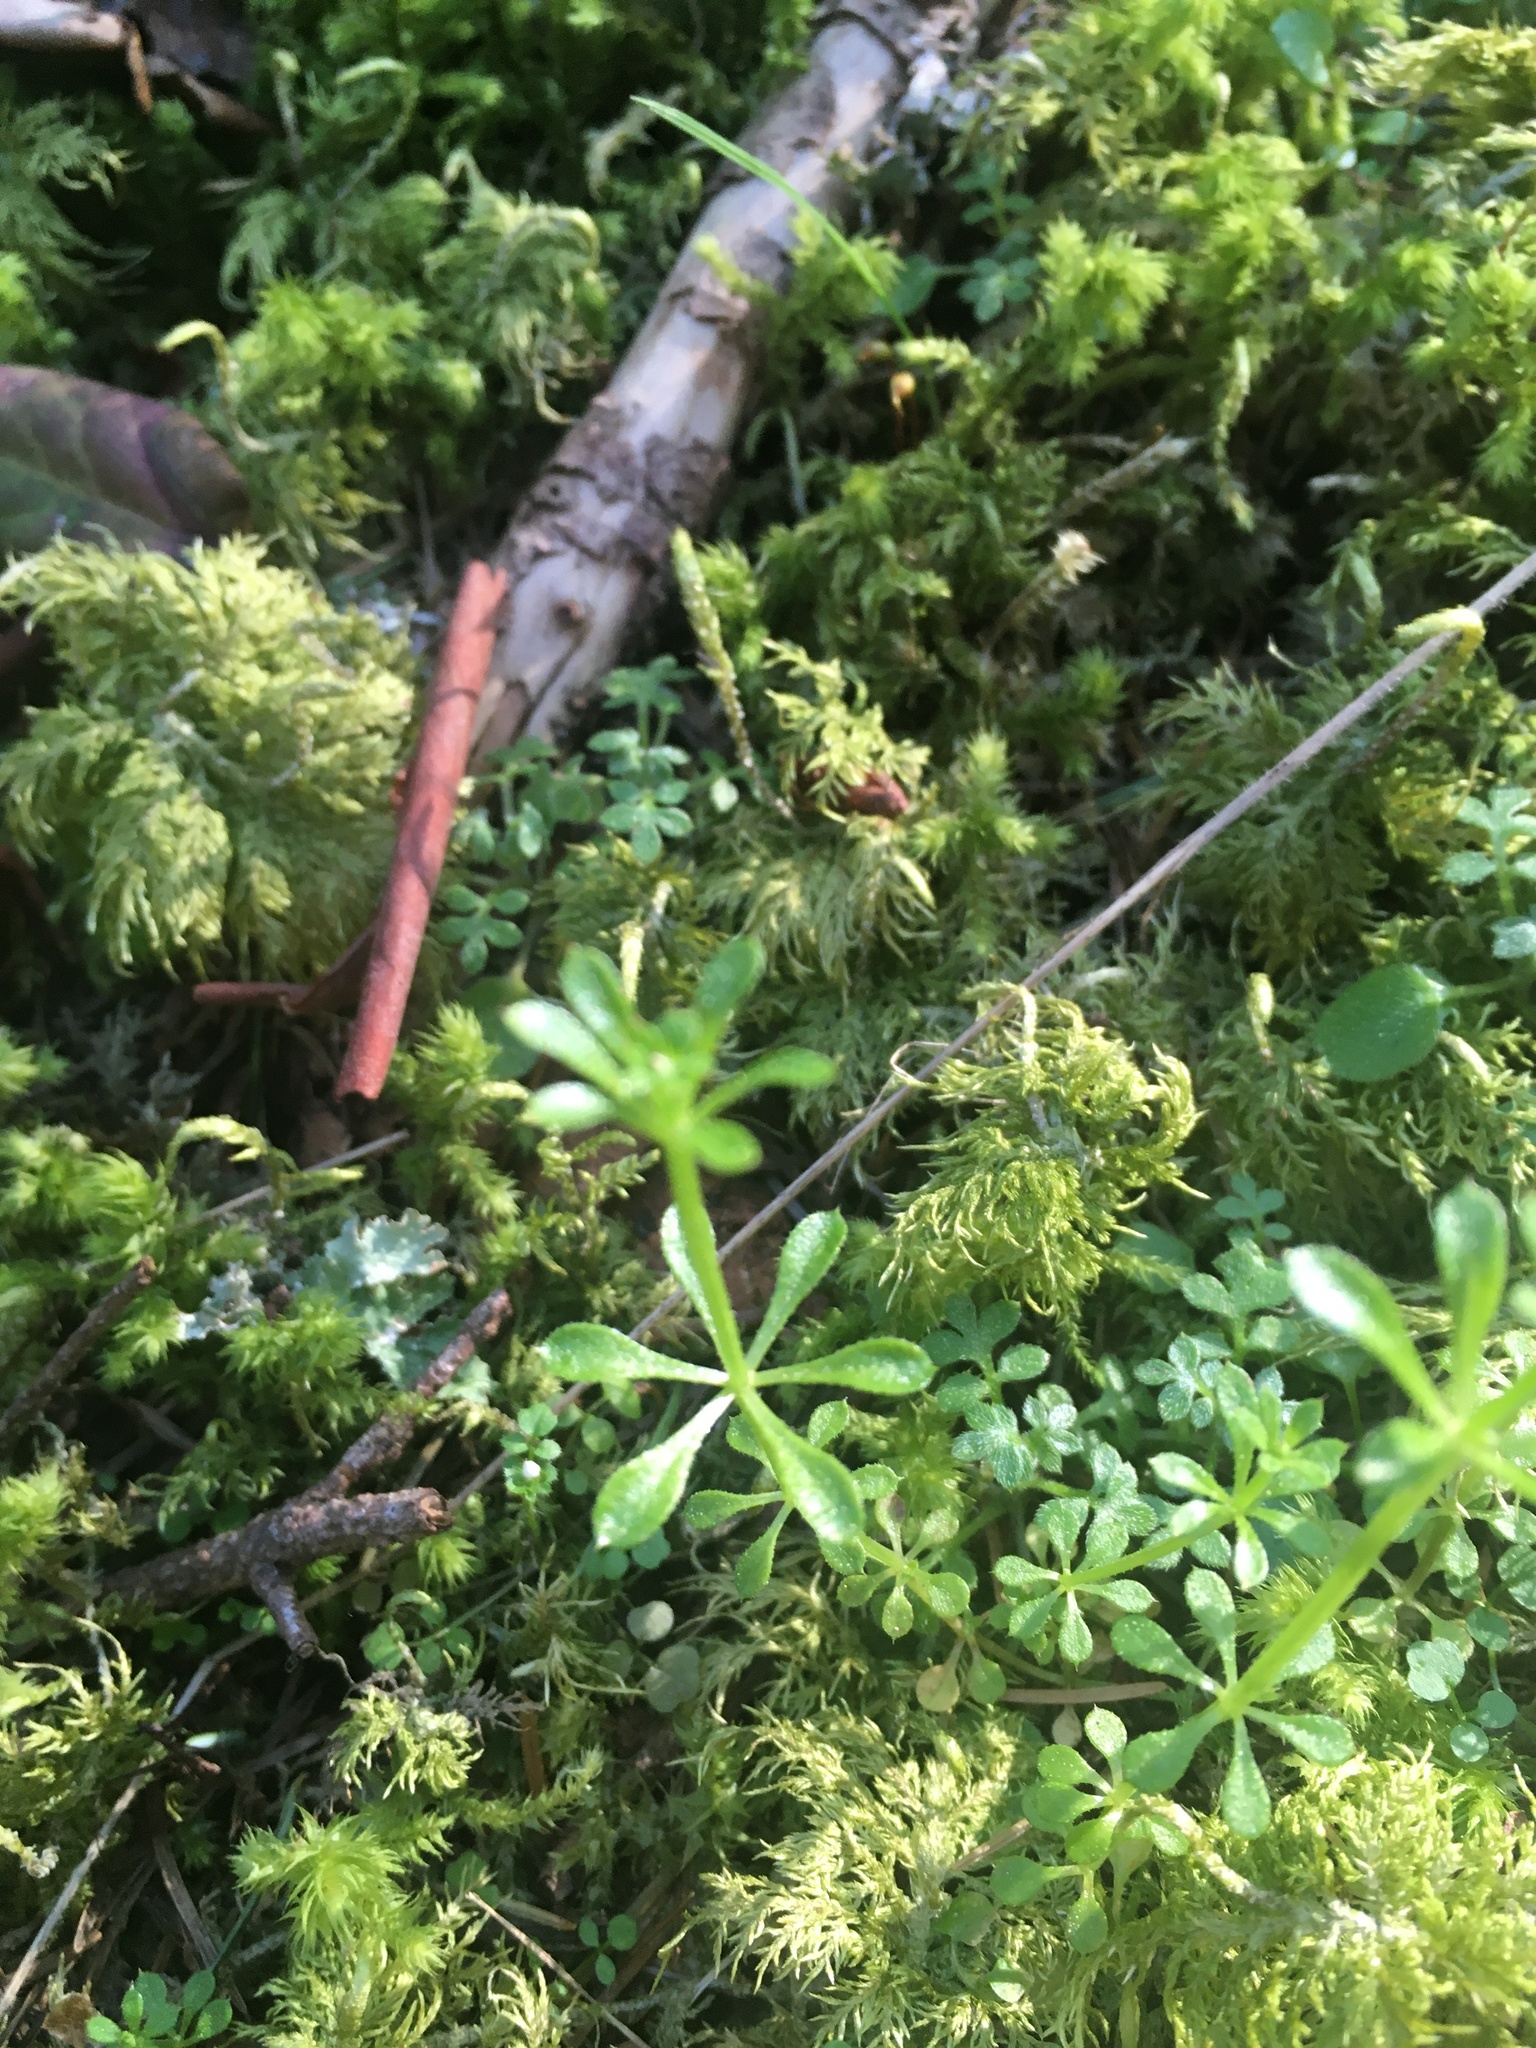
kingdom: Plantae
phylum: Tracheophyta
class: Magnoliopsida
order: Gentianales
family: Rubiaceae
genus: Galium
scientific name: Galium aparine
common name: Cleavers
